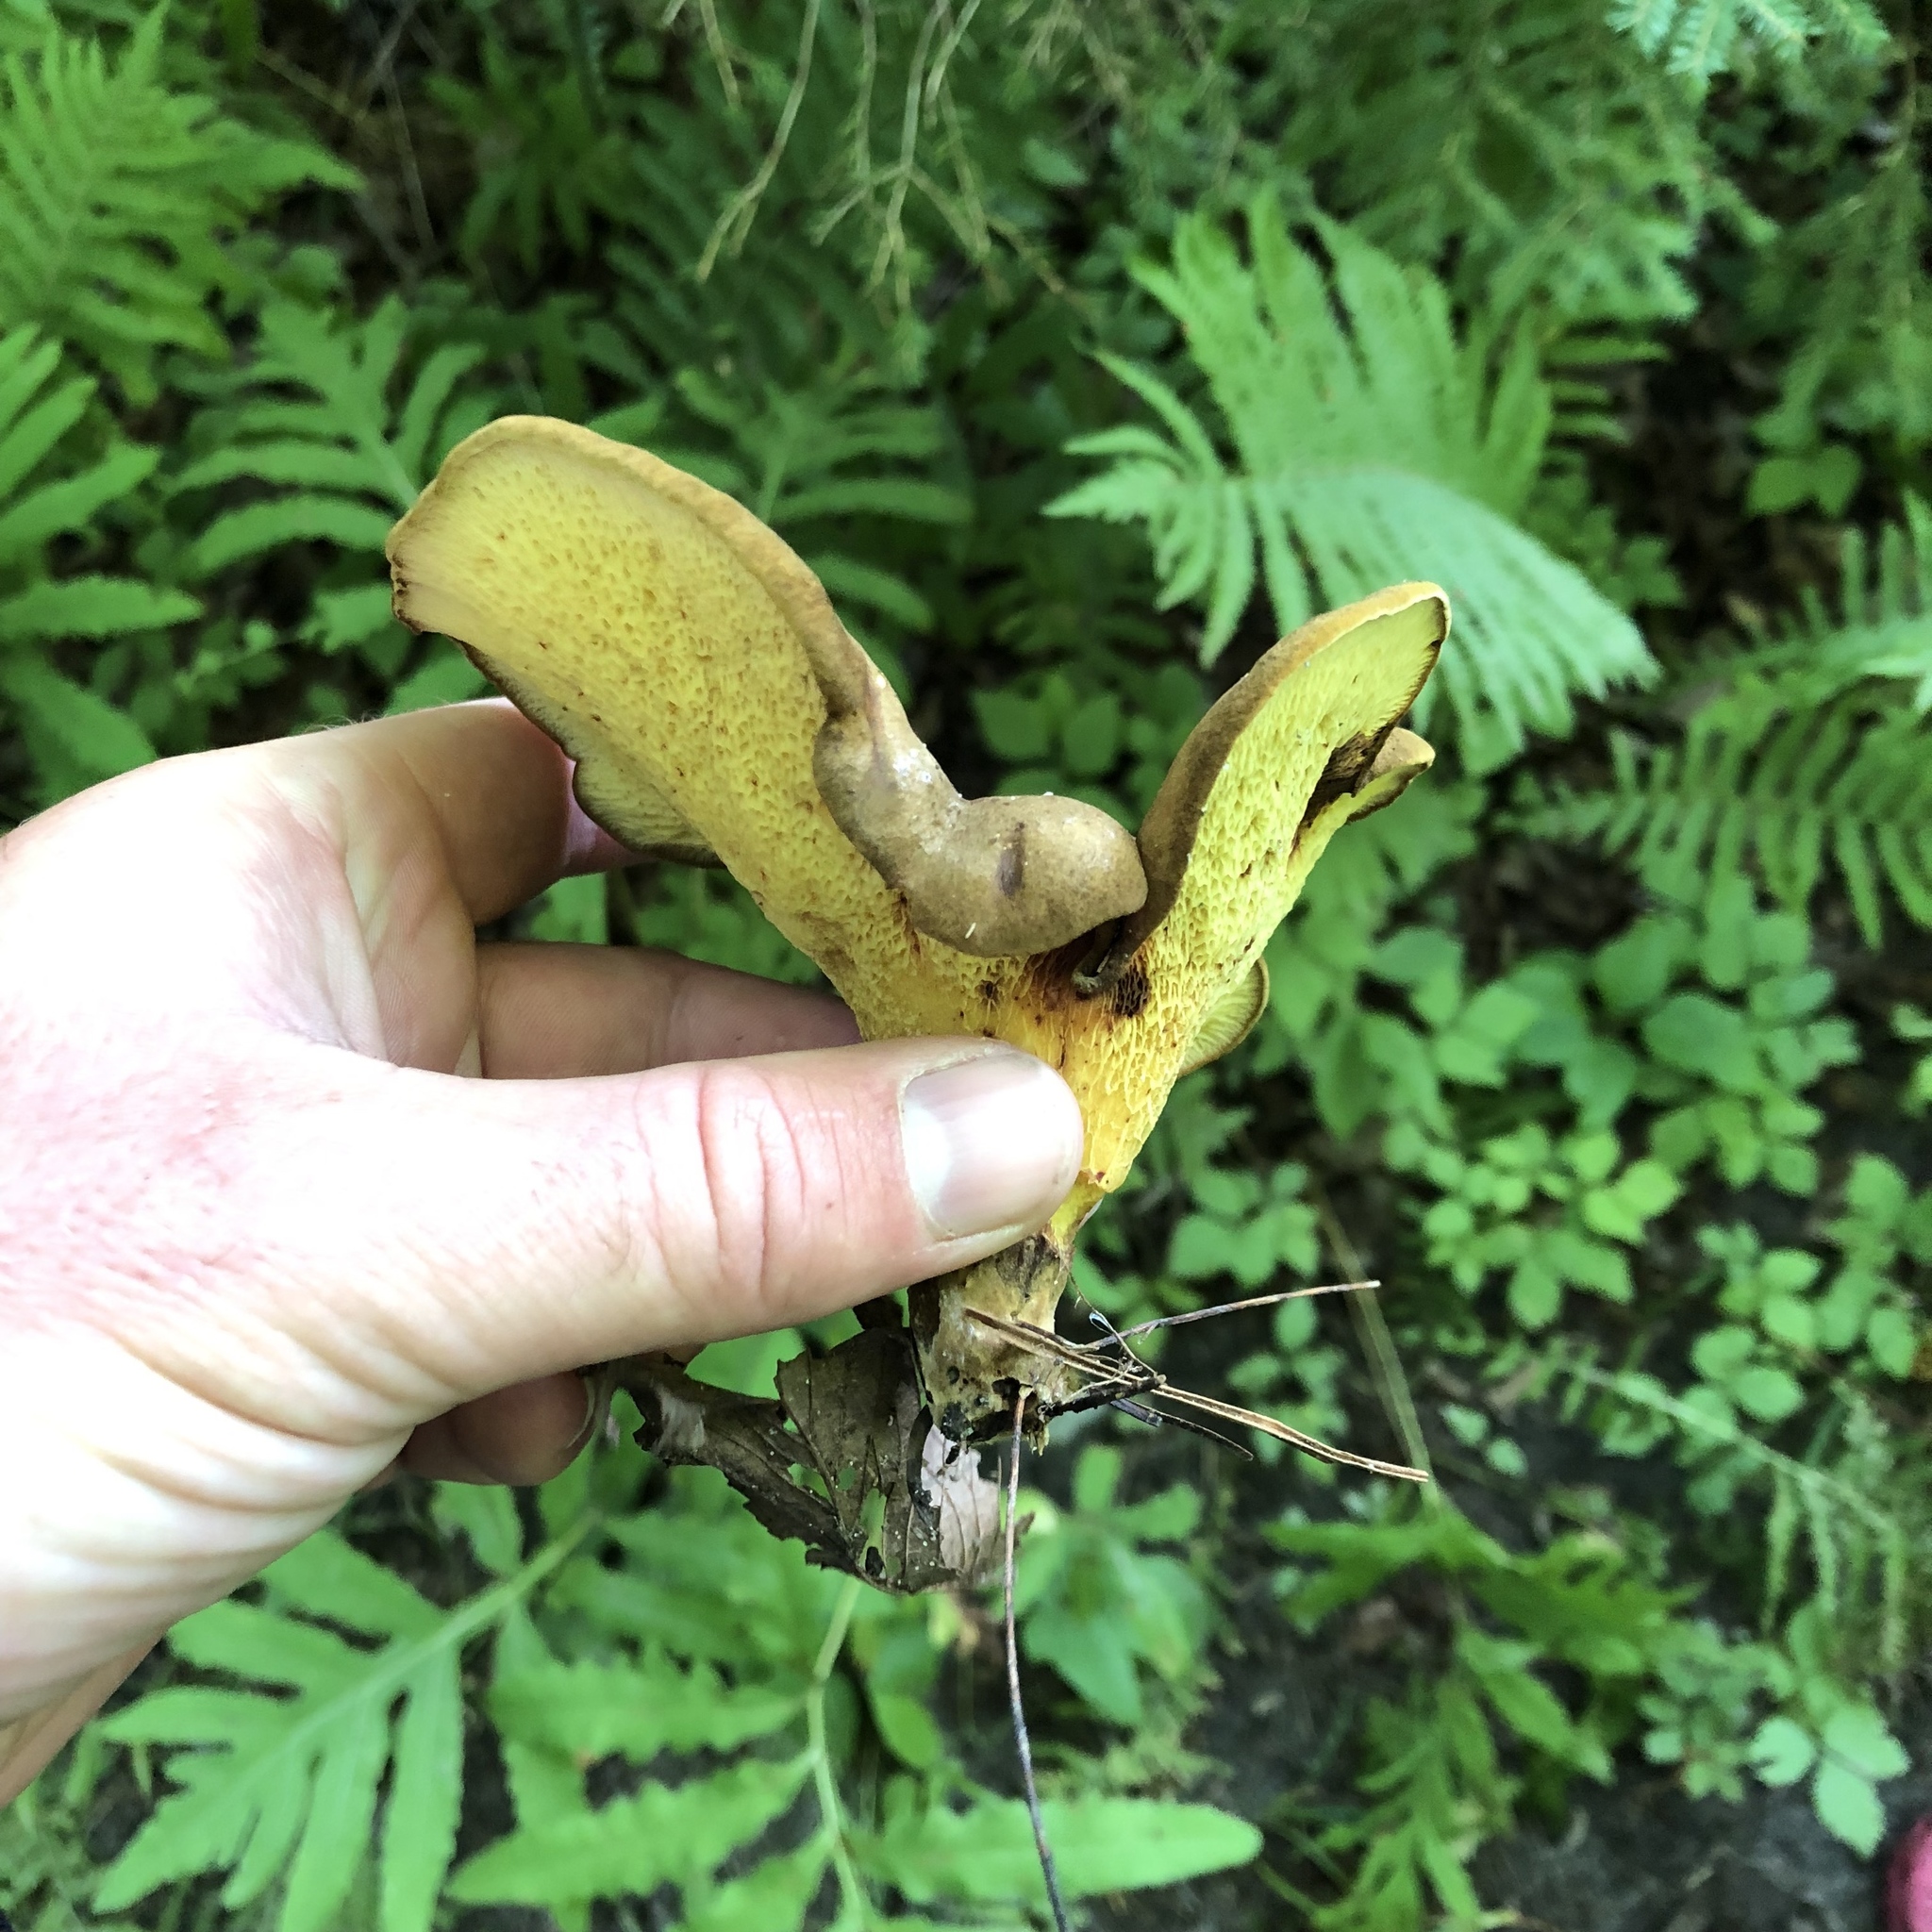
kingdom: Fungi
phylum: Basidiomycota
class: Agaricomycetes
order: Boletales
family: Boletinellaceae
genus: Boletinellus
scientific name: Boletinellus merulioides
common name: Ash tree bolete
